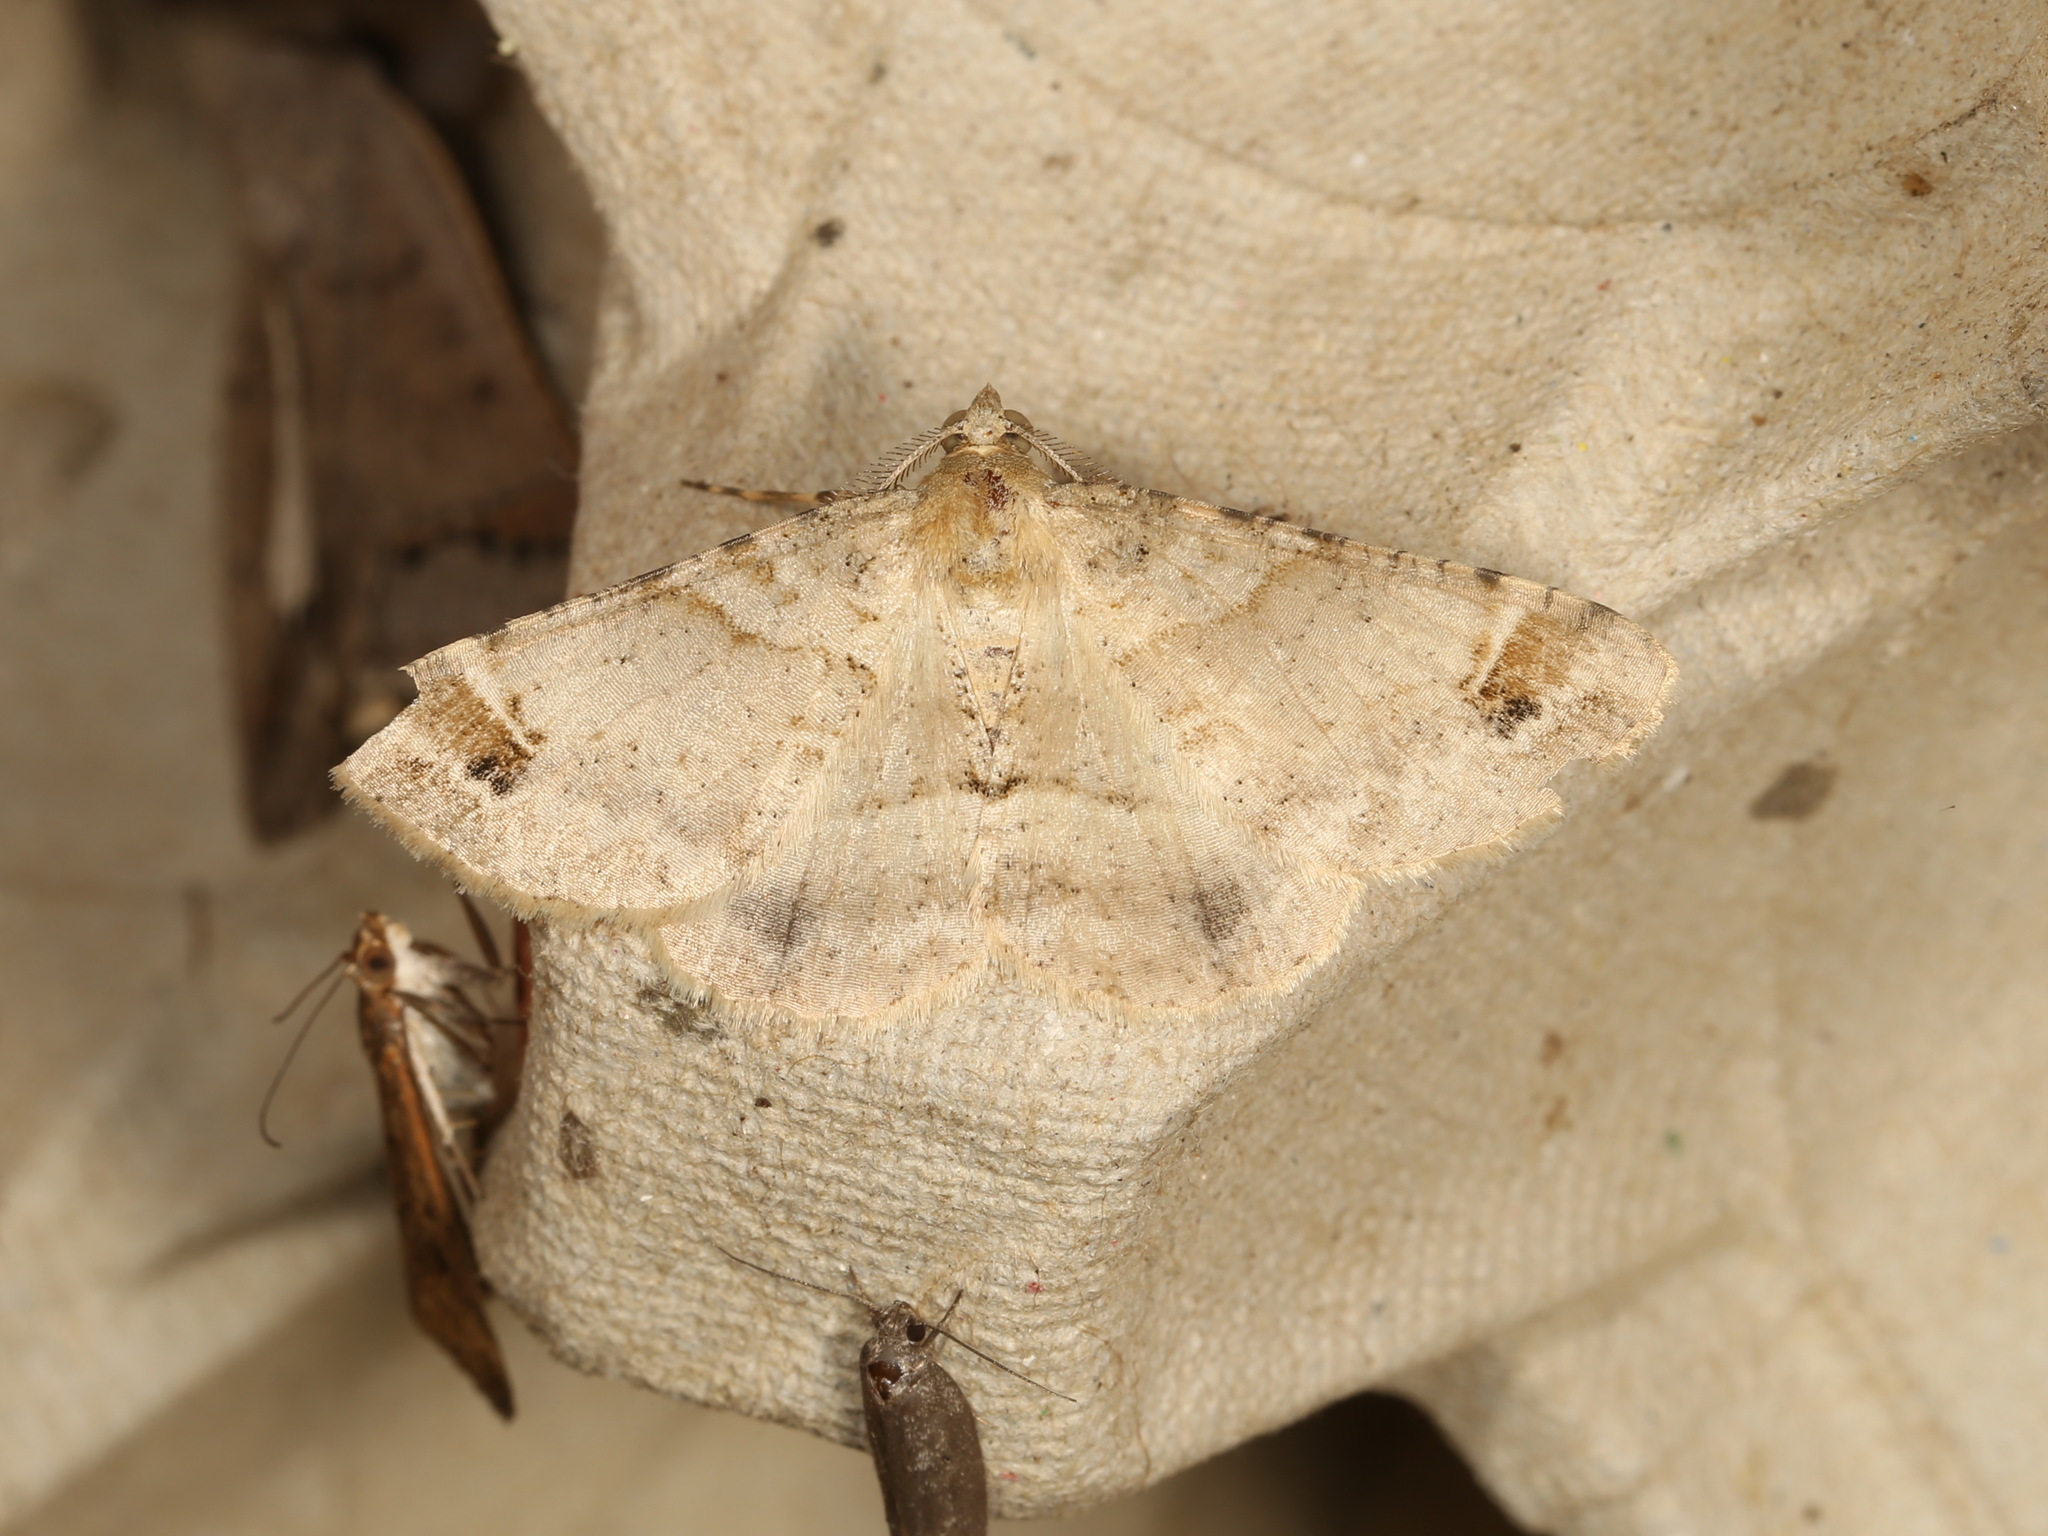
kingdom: Animalia
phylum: Arthropoda
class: Insecta
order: Lepidoptera
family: Geometridae
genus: Syneora
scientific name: Syneora hemeropa
